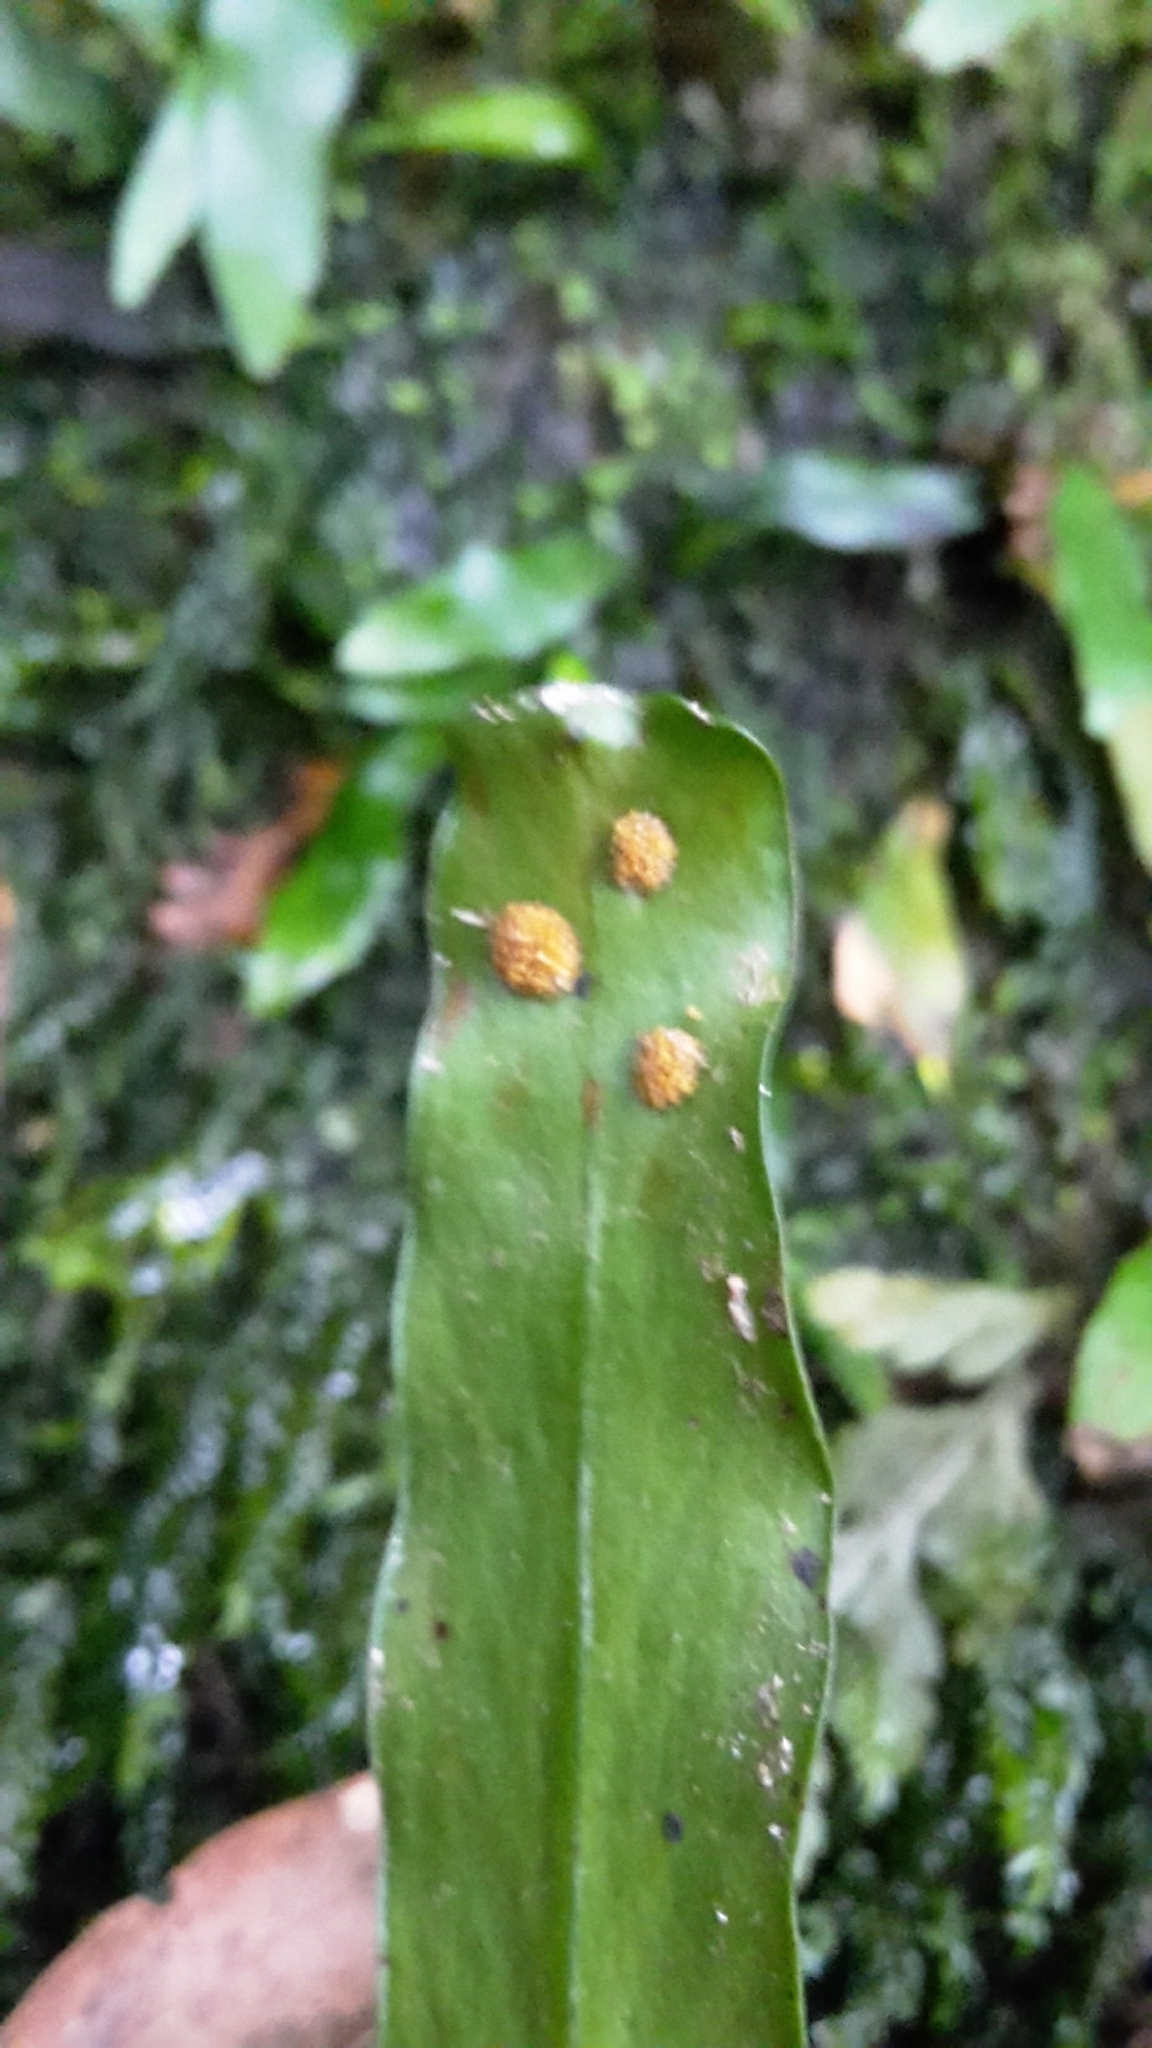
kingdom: Plantae
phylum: Tracheophyta
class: Polypodiopsida
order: Polypodiales
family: Polypodiaceae
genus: Loxogramme
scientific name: Loxogramme dictyopteris
